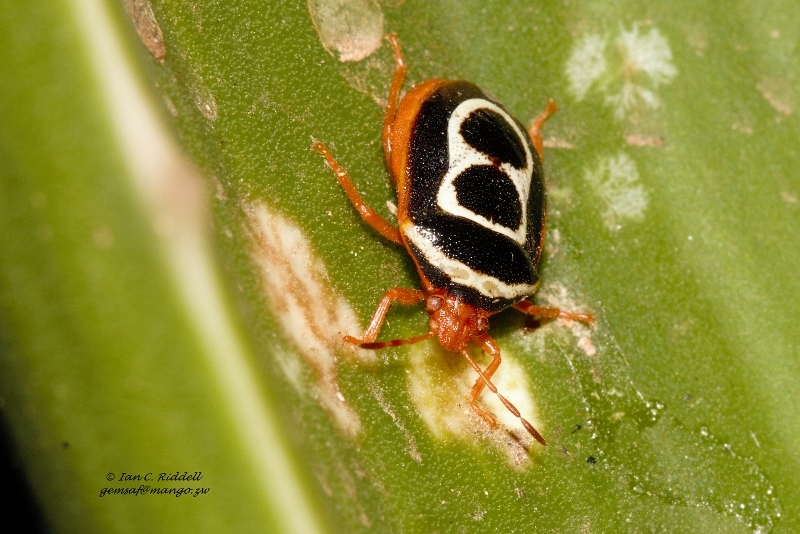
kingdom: Animalia
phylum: Arthropoda
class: Insecta
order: Hemiptera
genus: Flaminia
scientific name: Flaminia
